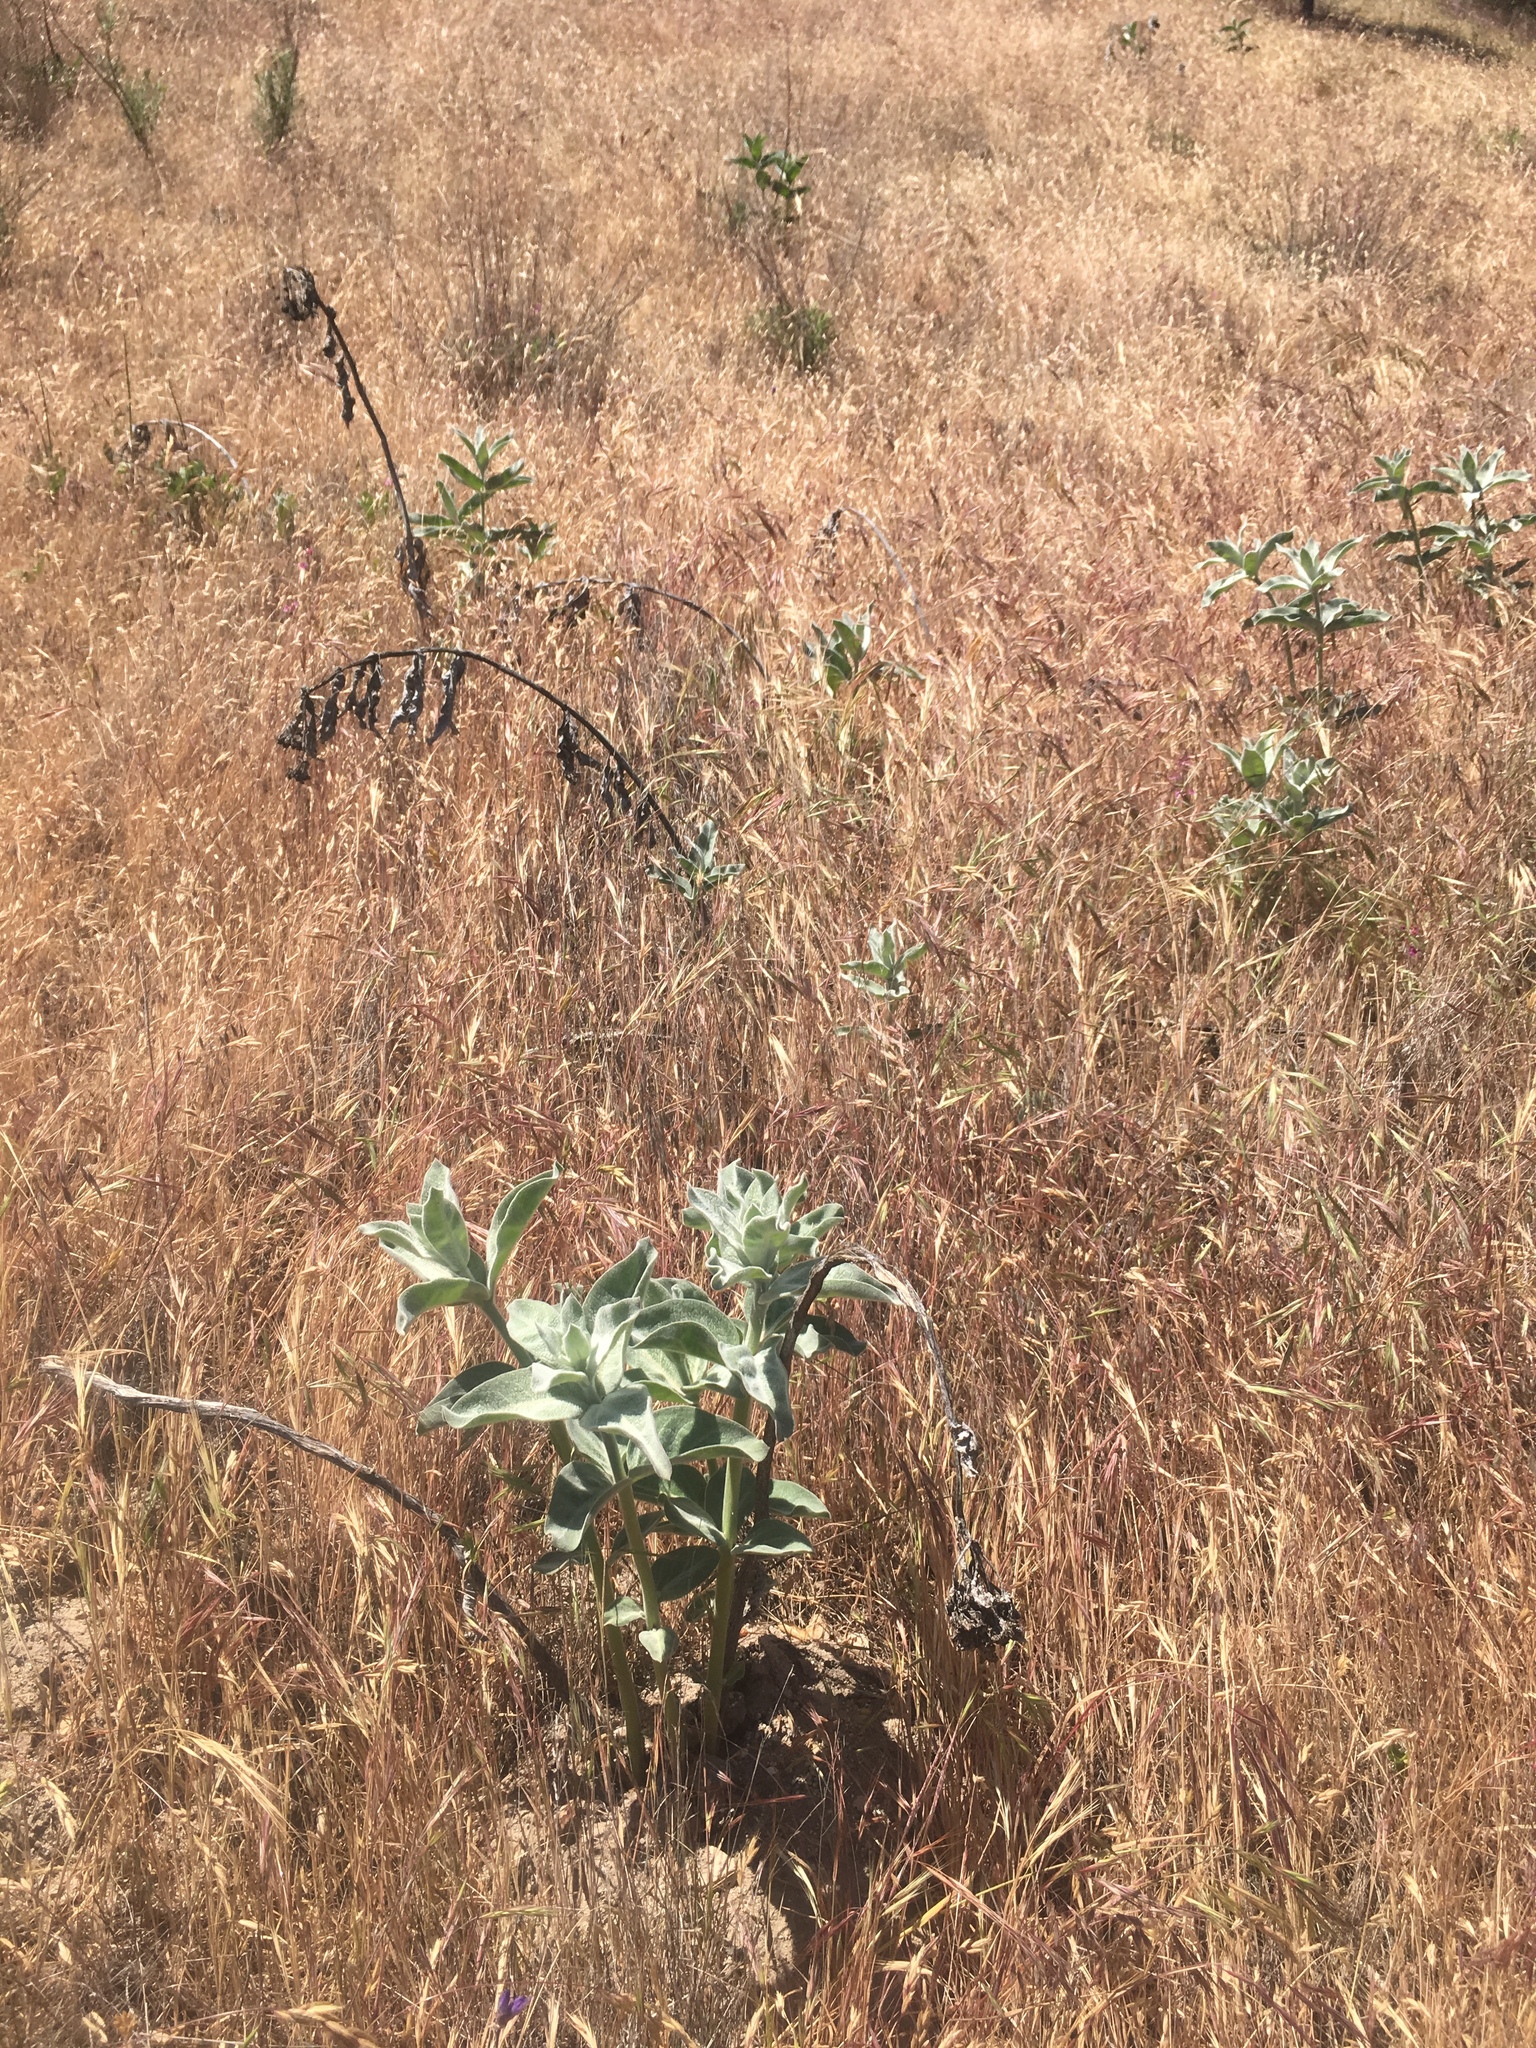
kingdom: Plantae
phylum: Tracheophyta
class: Magnoliopsida
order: Gentianales
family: Apocynaceae
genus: Asclepias
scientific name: Asclepias eriocarpa
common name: Indian milkweed
